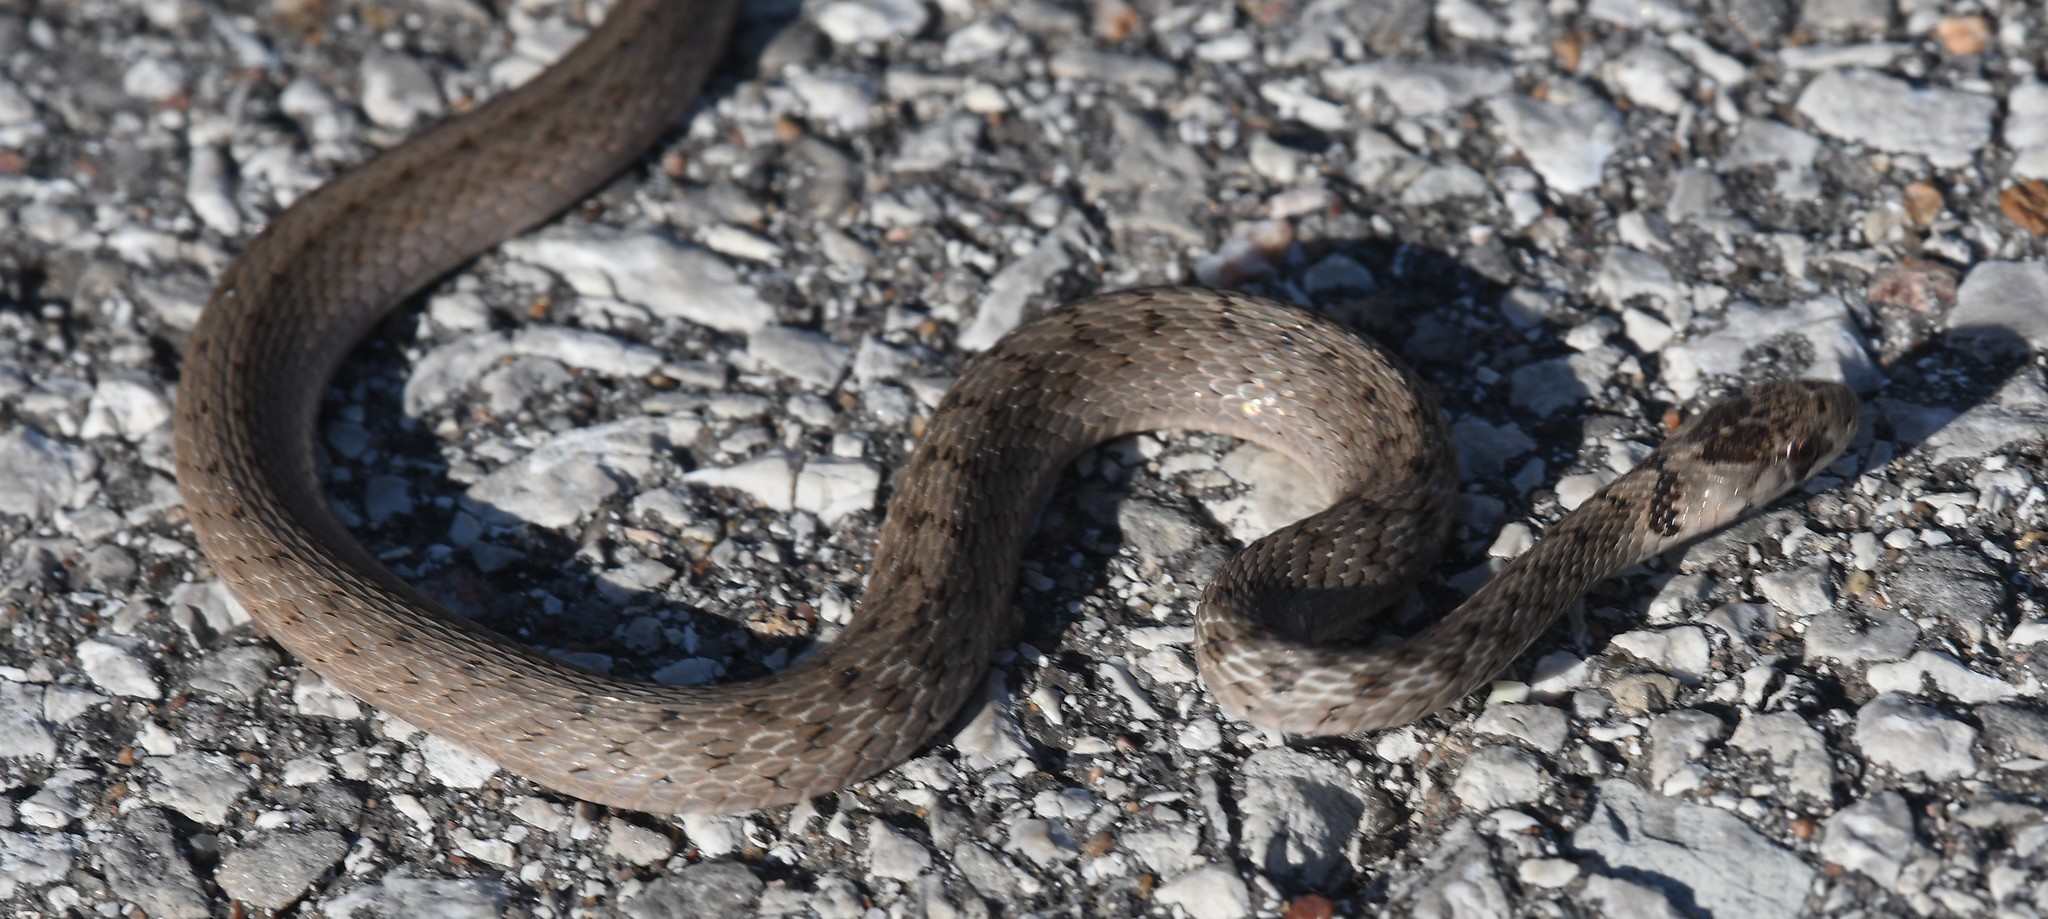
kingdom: Animalia
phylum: Chordata
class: Squamata
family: Colubridae
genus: Storeria
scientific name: Storeria dekayi
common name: (dekay’s) brown snake
